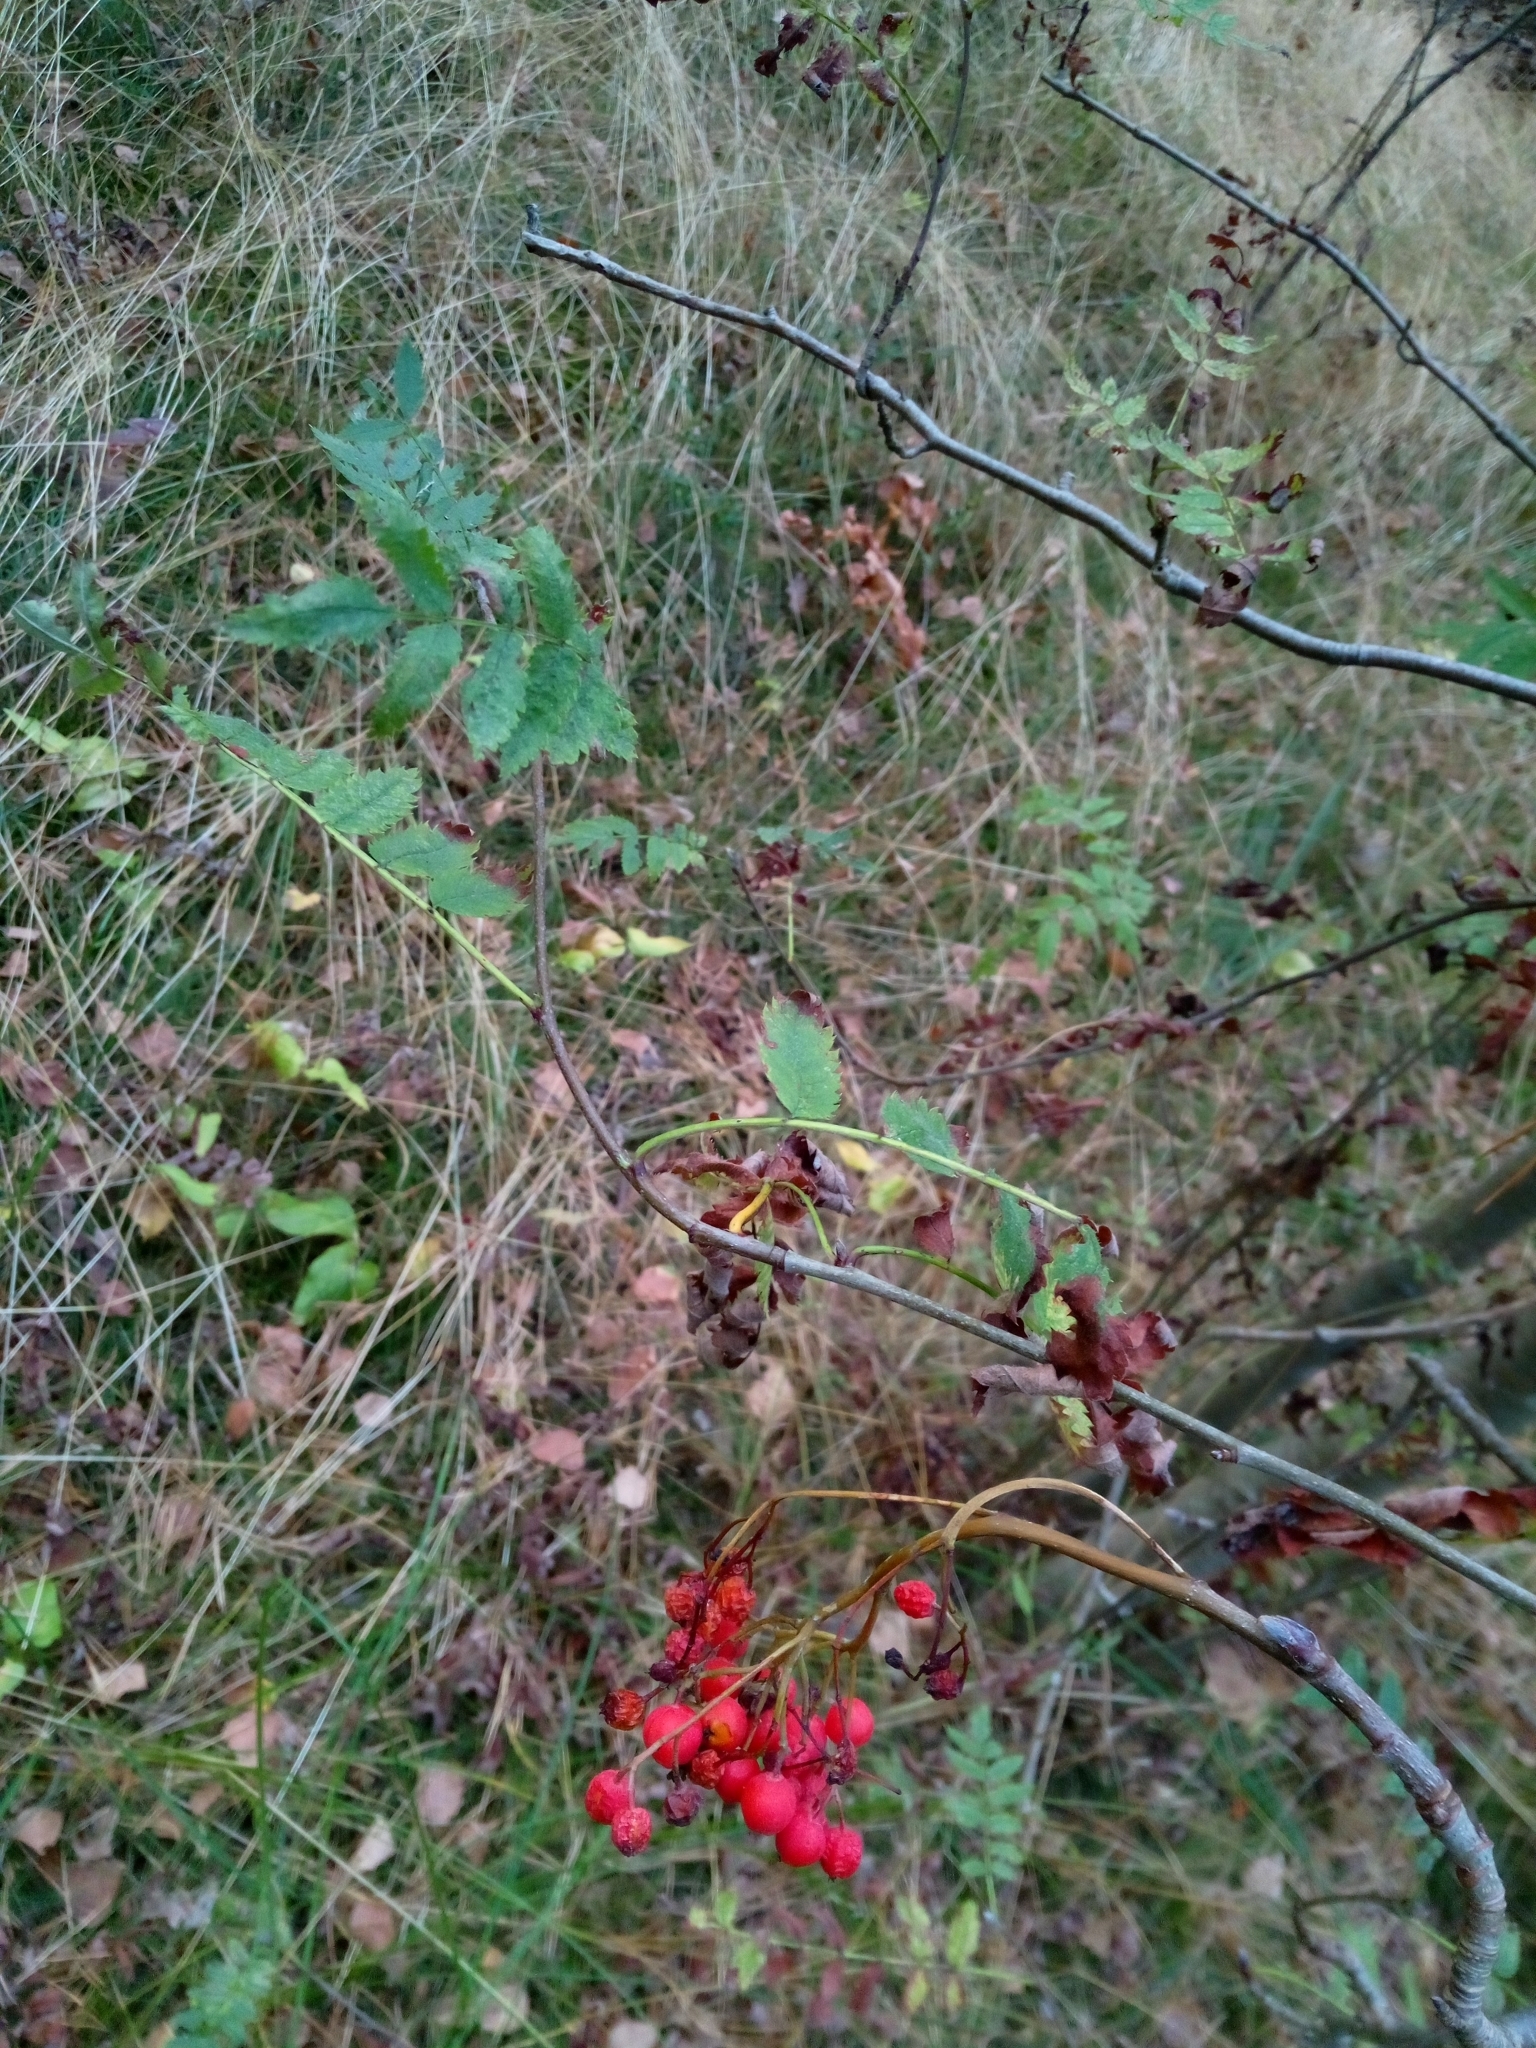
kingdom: Plantae
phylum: Tracheophyta
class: Magnoliopsida
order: Rosales
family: Rosaceae
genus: Sorbus
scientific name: Sorbus aucuparia
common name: Rowan
